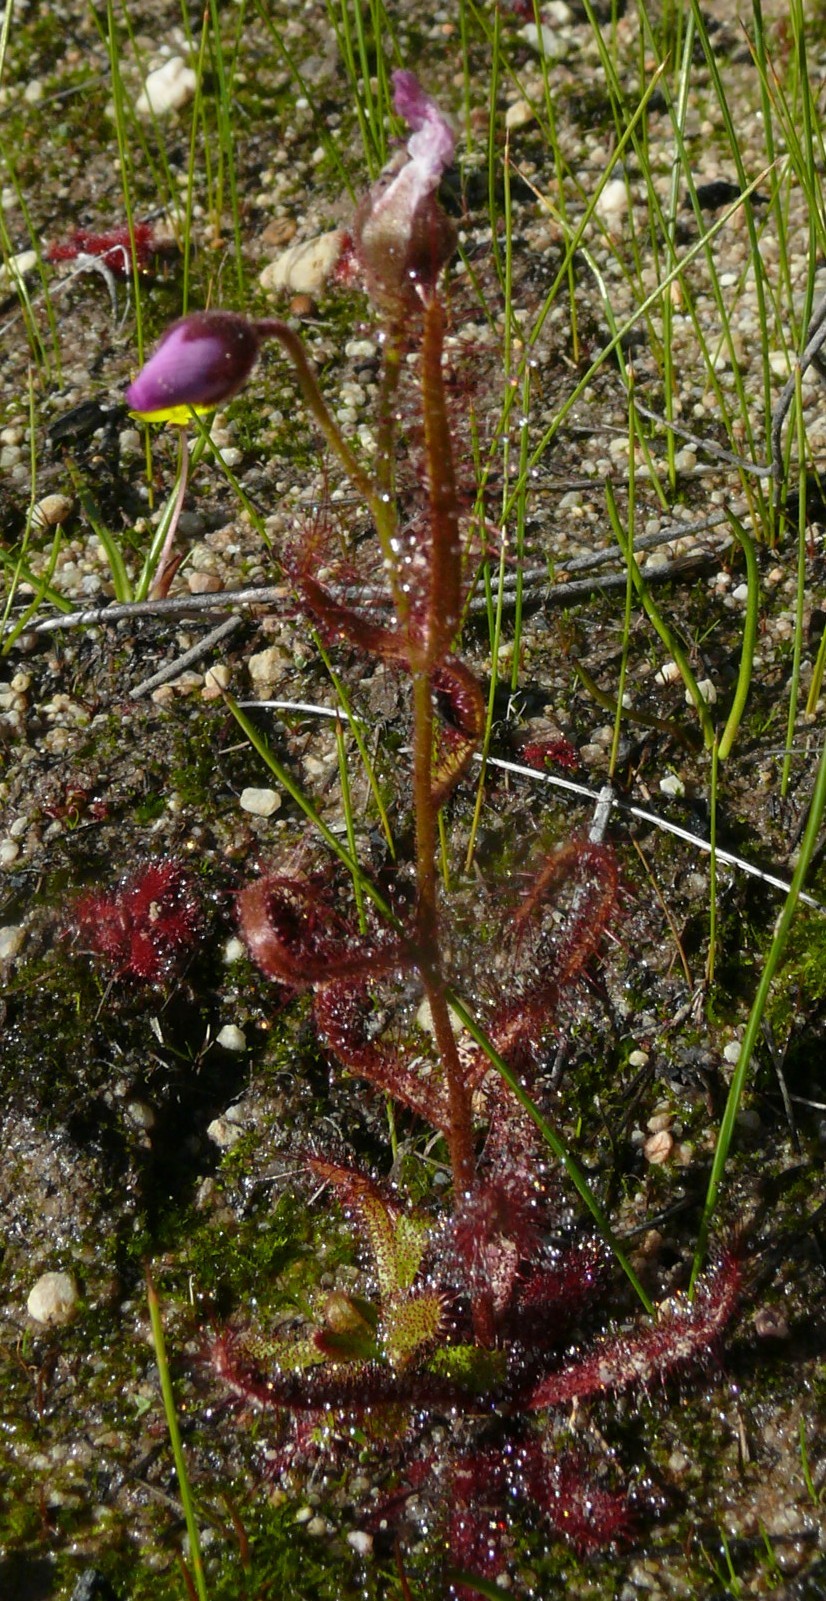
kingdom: Plantae
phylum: Tracheophyta
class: Magnoliopsida
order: Caryophyllales
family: Droseraceae
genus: Drosera
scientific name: Drosera cistiflora
